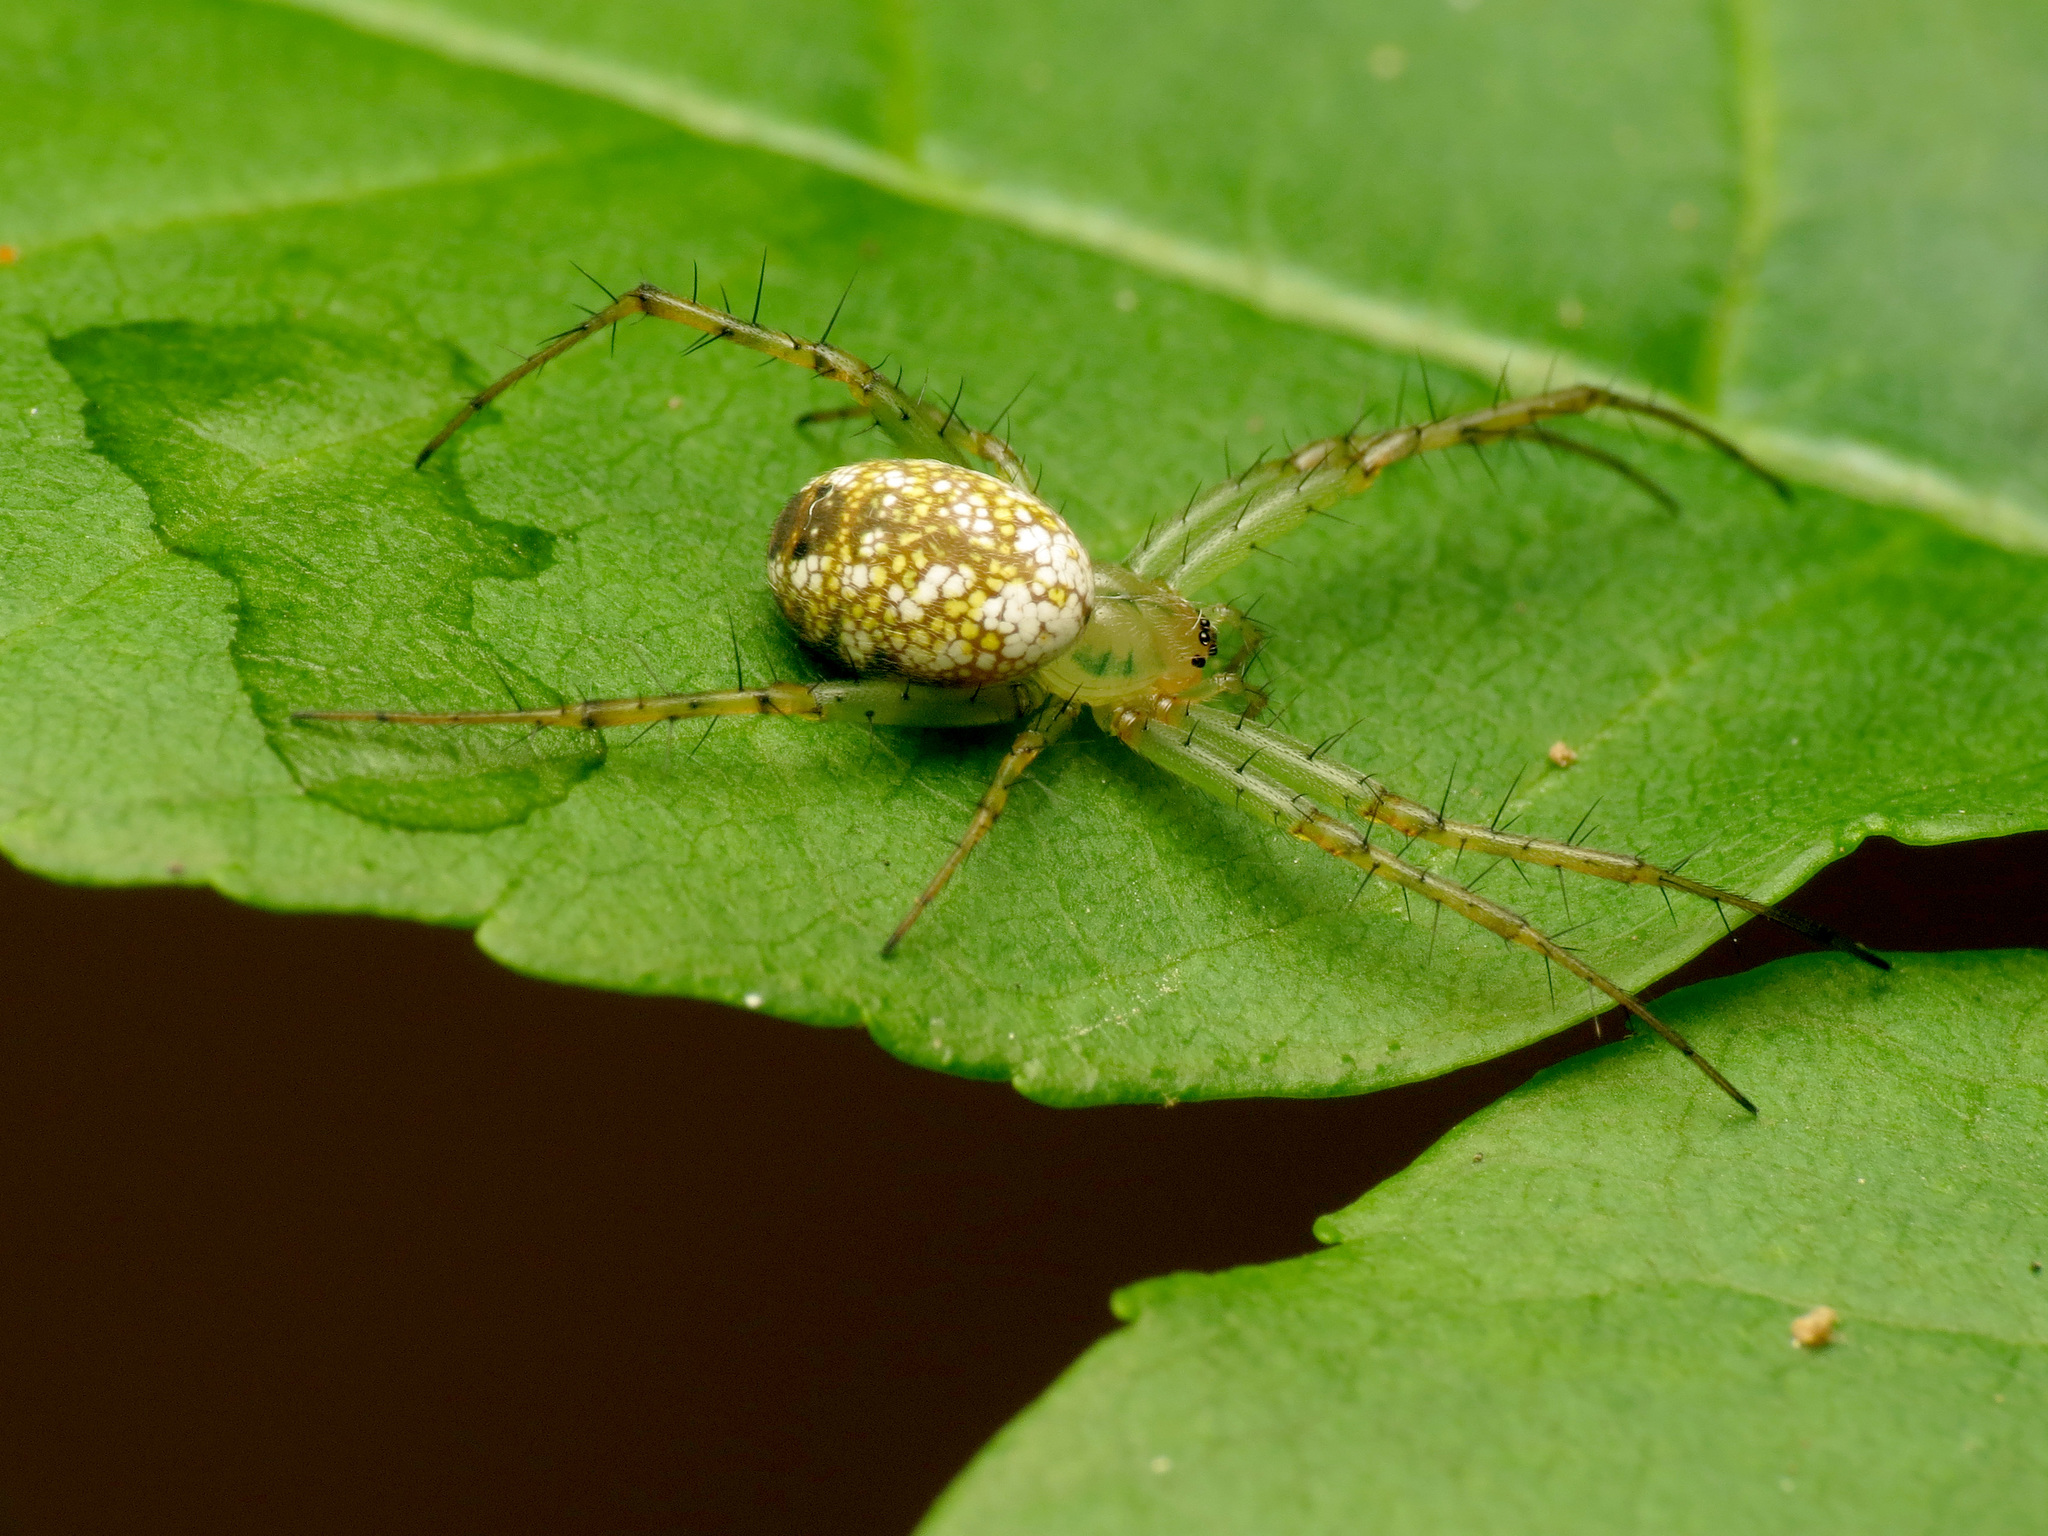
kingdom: Animalia
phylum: Arthropoda
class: Arachnida
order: Araneae
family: Araneidae
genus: Mangora
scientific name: Mangora maculata
